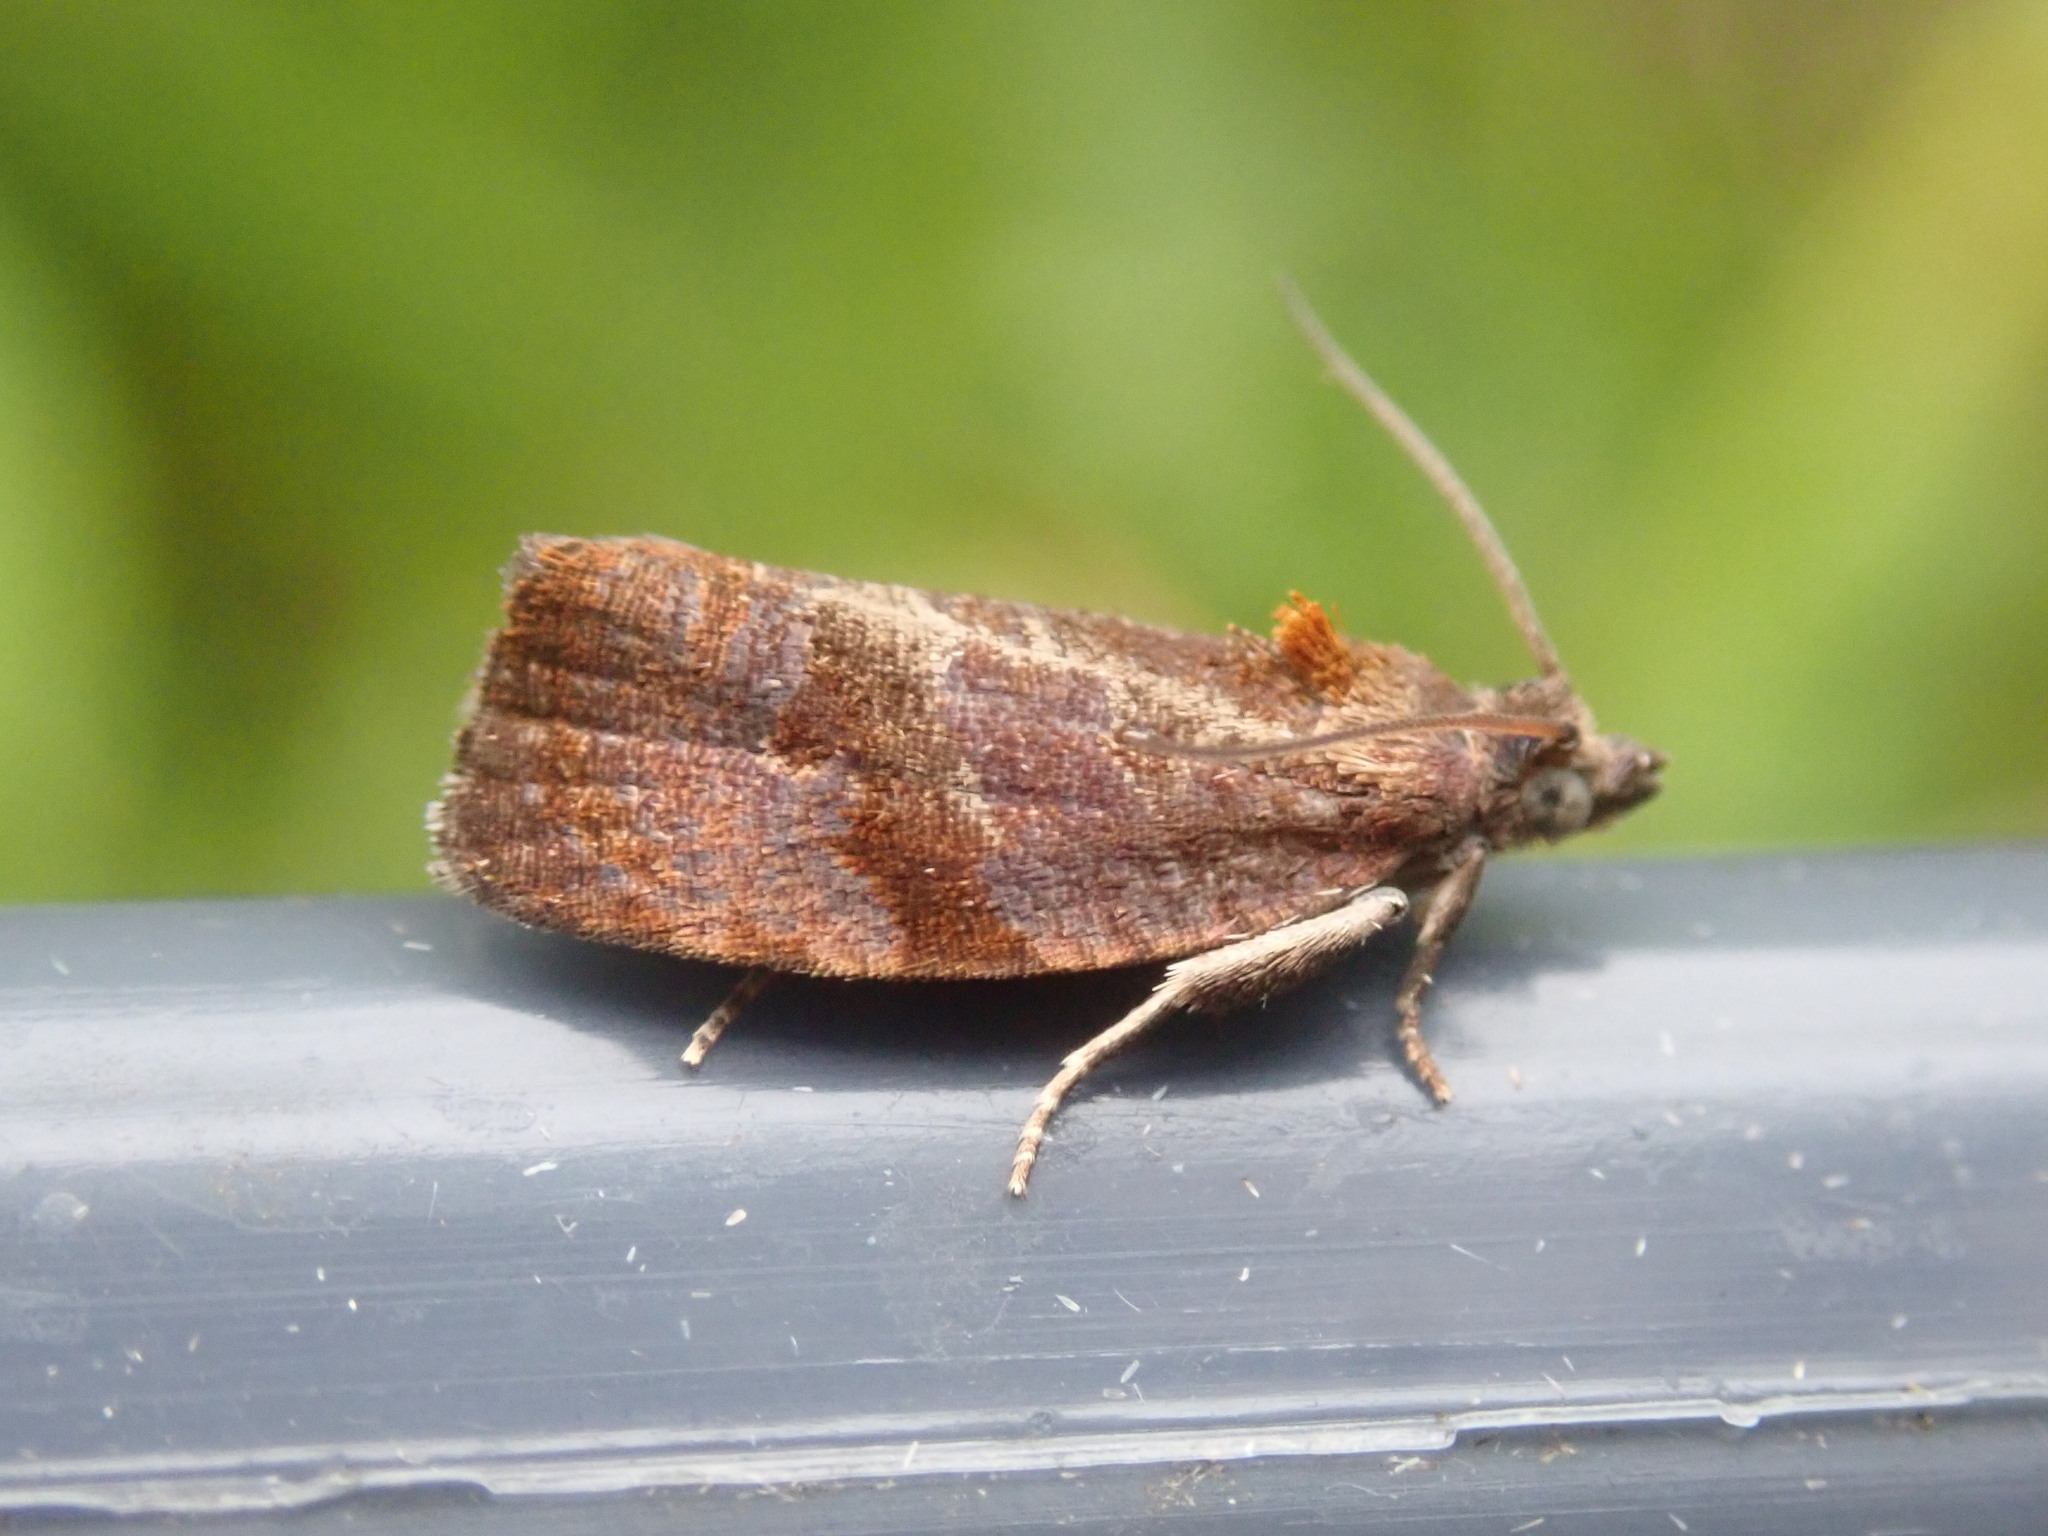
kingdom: Animalia
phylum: Arthropoda
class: Insecta
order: Lepidoptera
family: Tortricidae
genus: Evora
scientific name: Evora hemidesma
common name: Spirea leaftier moth
